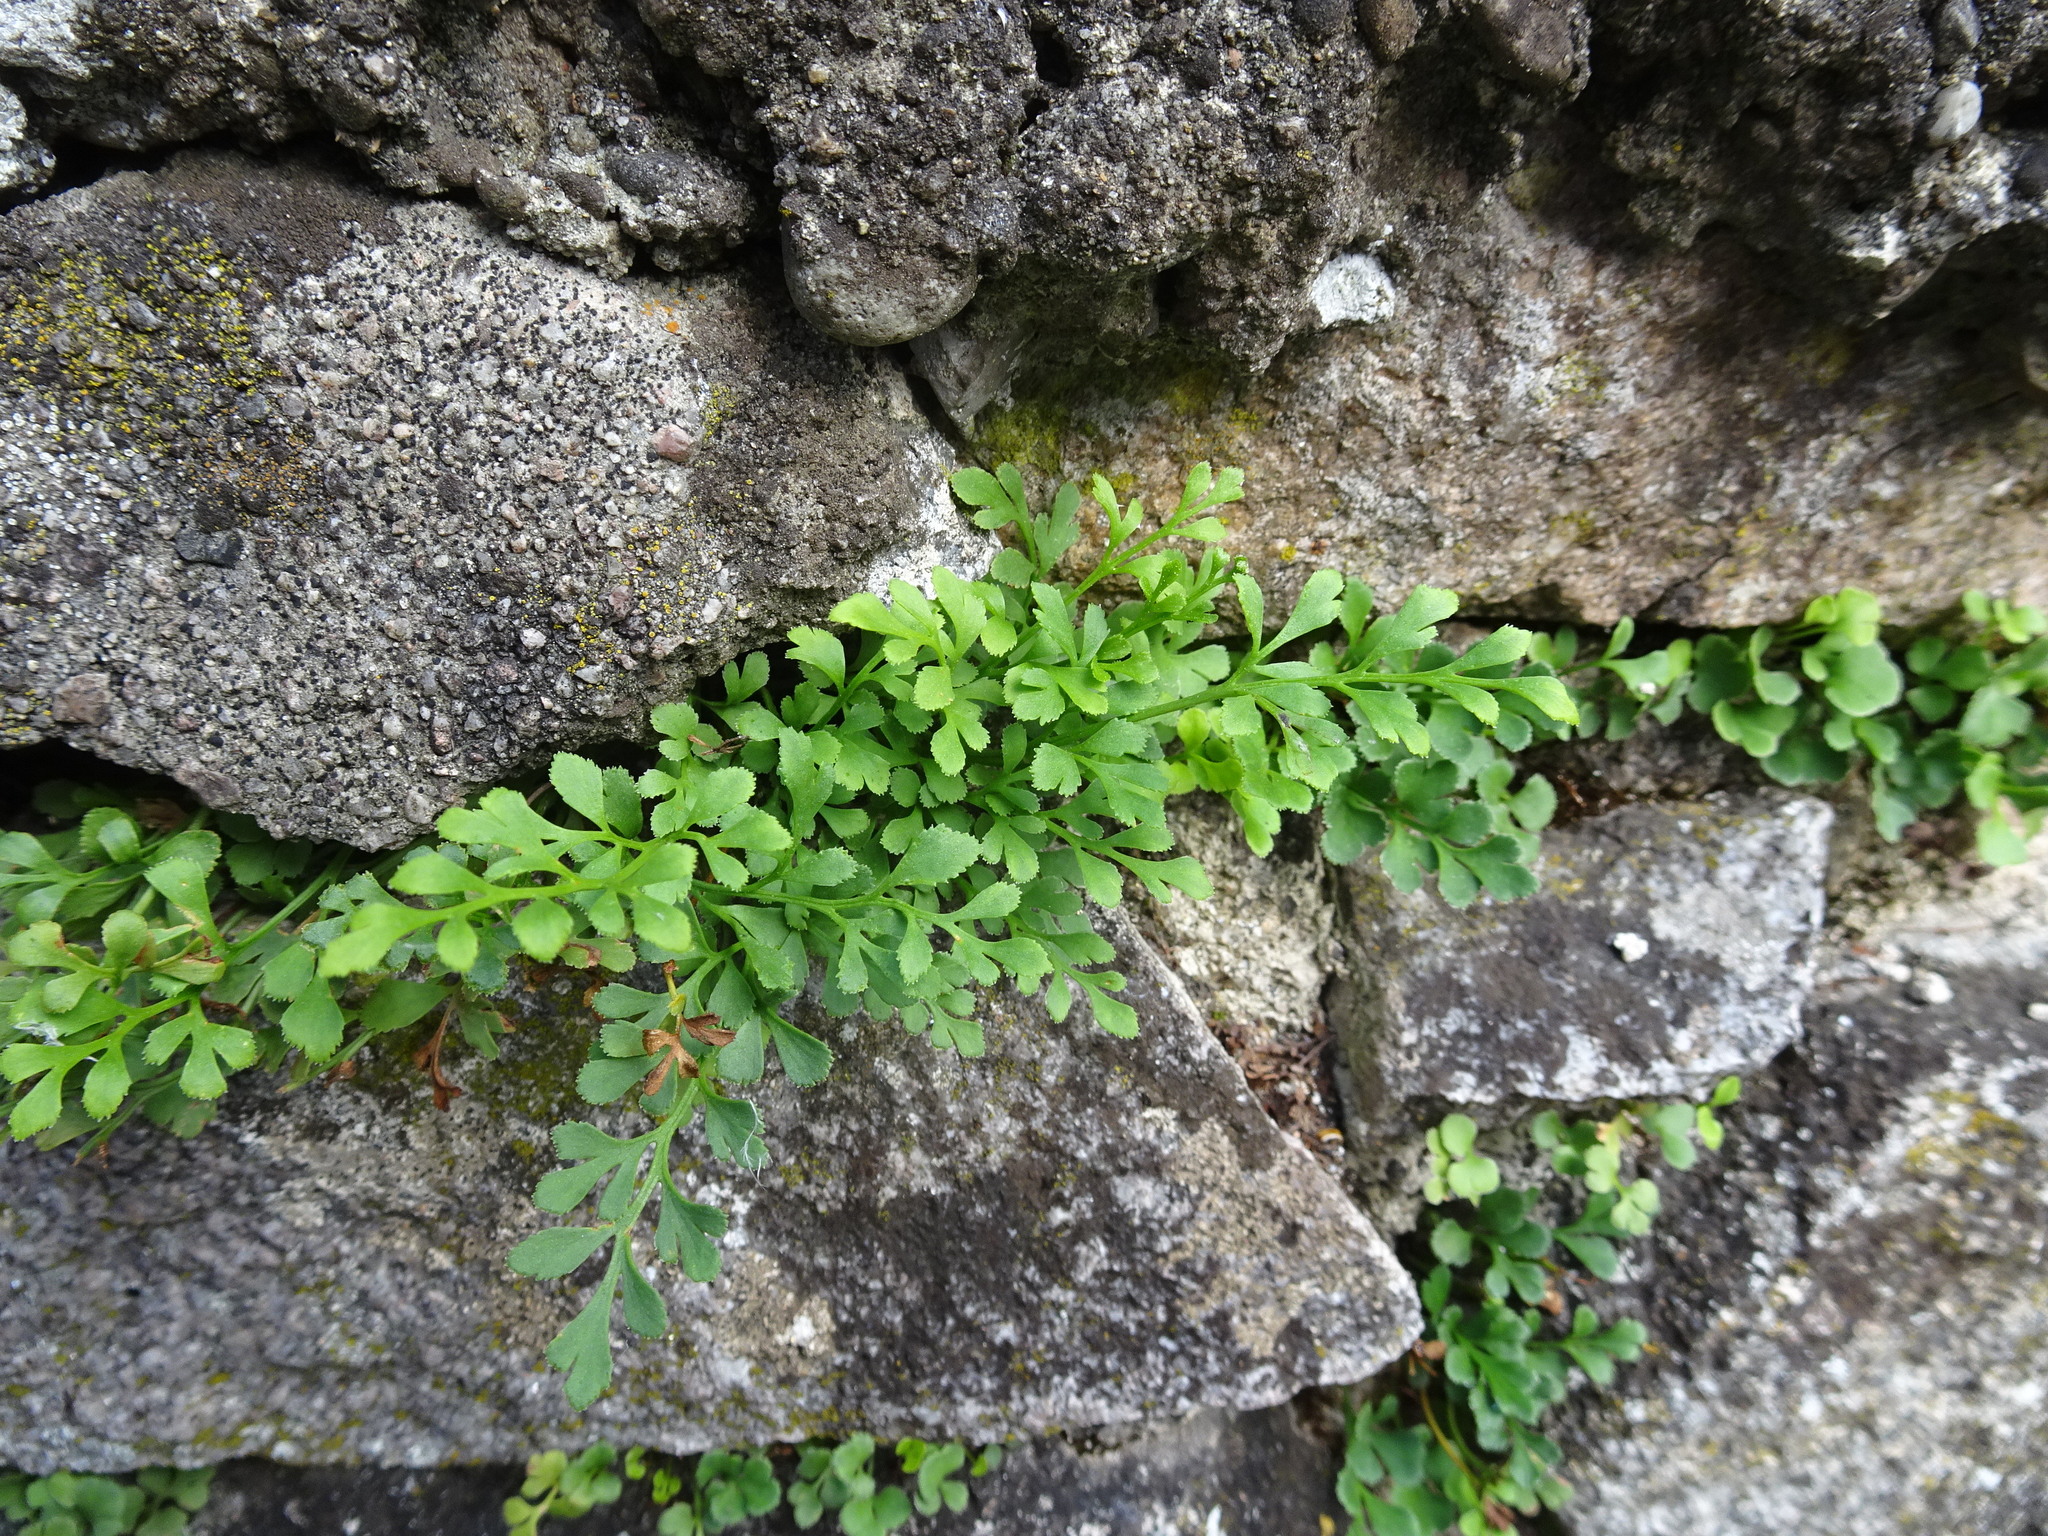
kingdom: Plantae
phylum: Tracheophyta
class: Polypodiopsida
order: Polypodiales
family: Aspleniaceae
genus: Asplenium
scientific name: Asplenium ruta-muraria
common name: Wall-rue
